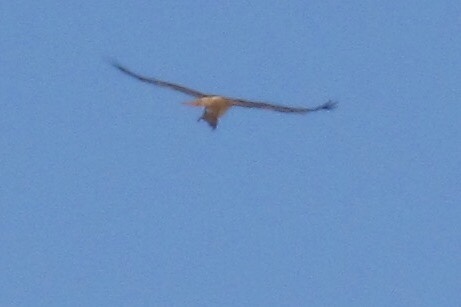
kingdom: Animalia
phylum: Chordata
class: Aves
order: Accipitriformes
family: Accipitridae
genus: Buteo
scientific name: Buteo jamaicensis
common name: Red-tailed hawk
